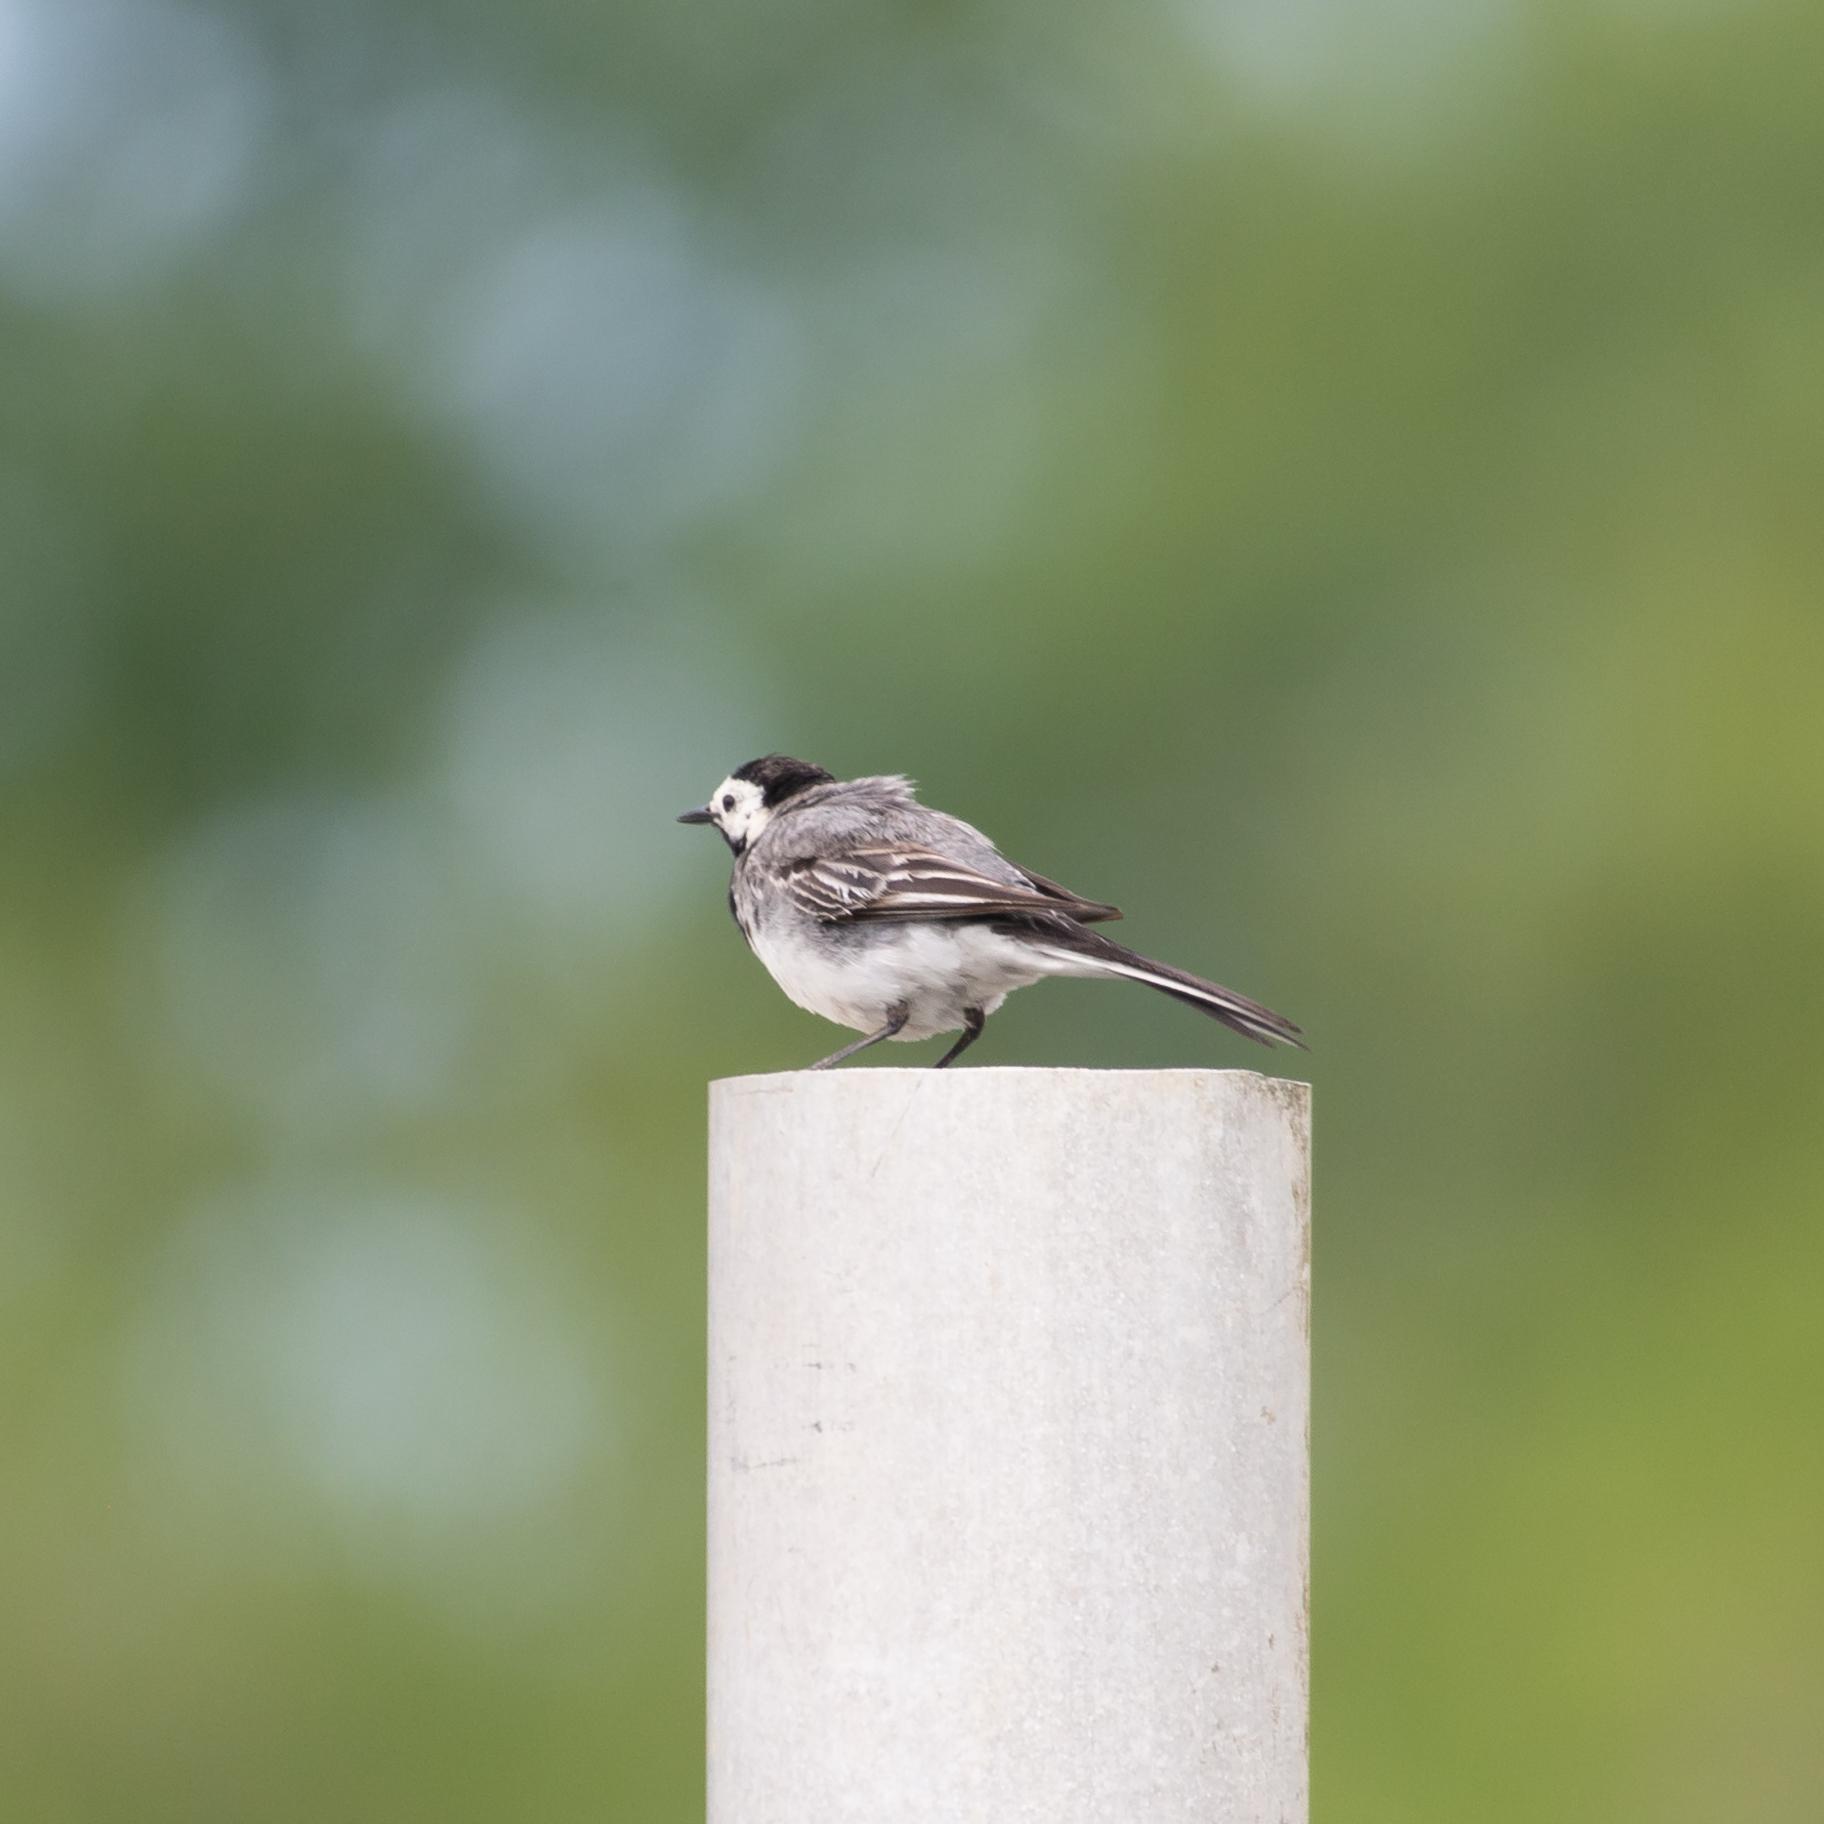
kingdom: Animalia
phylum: Chordata
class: Aves
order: Passeriformes
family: Motacillidae
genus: Motacilla
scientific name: Motacilla alba
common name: White wagtail
